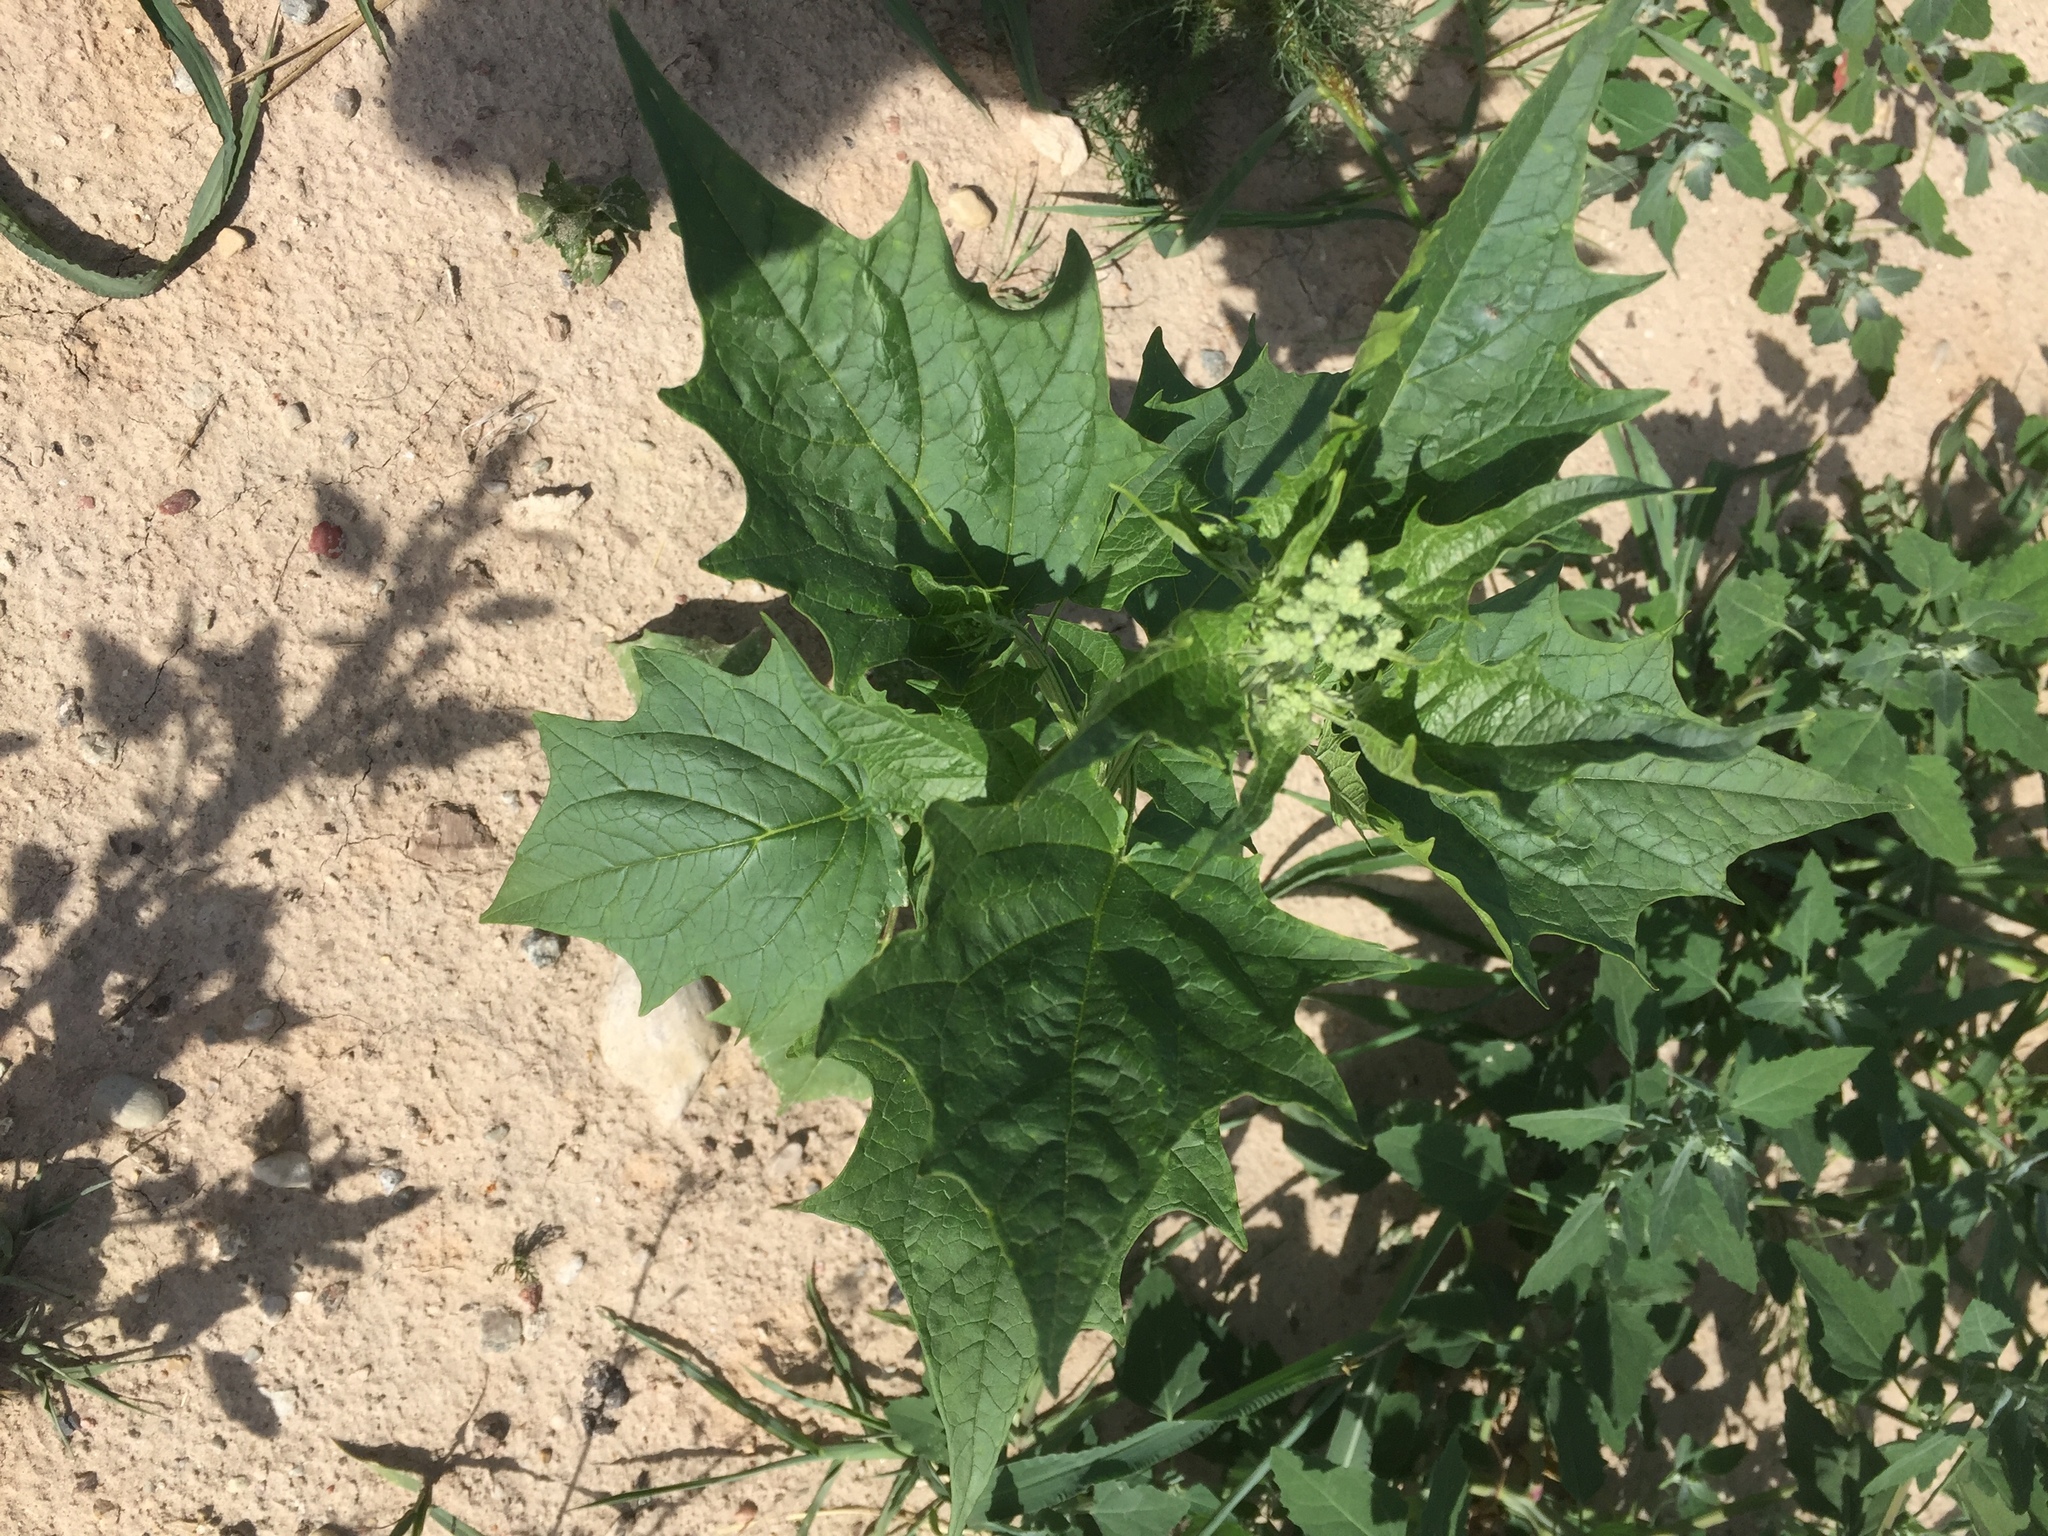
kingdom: Plantae
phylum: Tracheophyta
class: Magnoliopsida
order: Caryophyllales
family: Amaranthaceae
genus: Chenopodiastrum
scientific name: Chenopodiastrum hybridum
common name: Mapleleaf goosefoot
